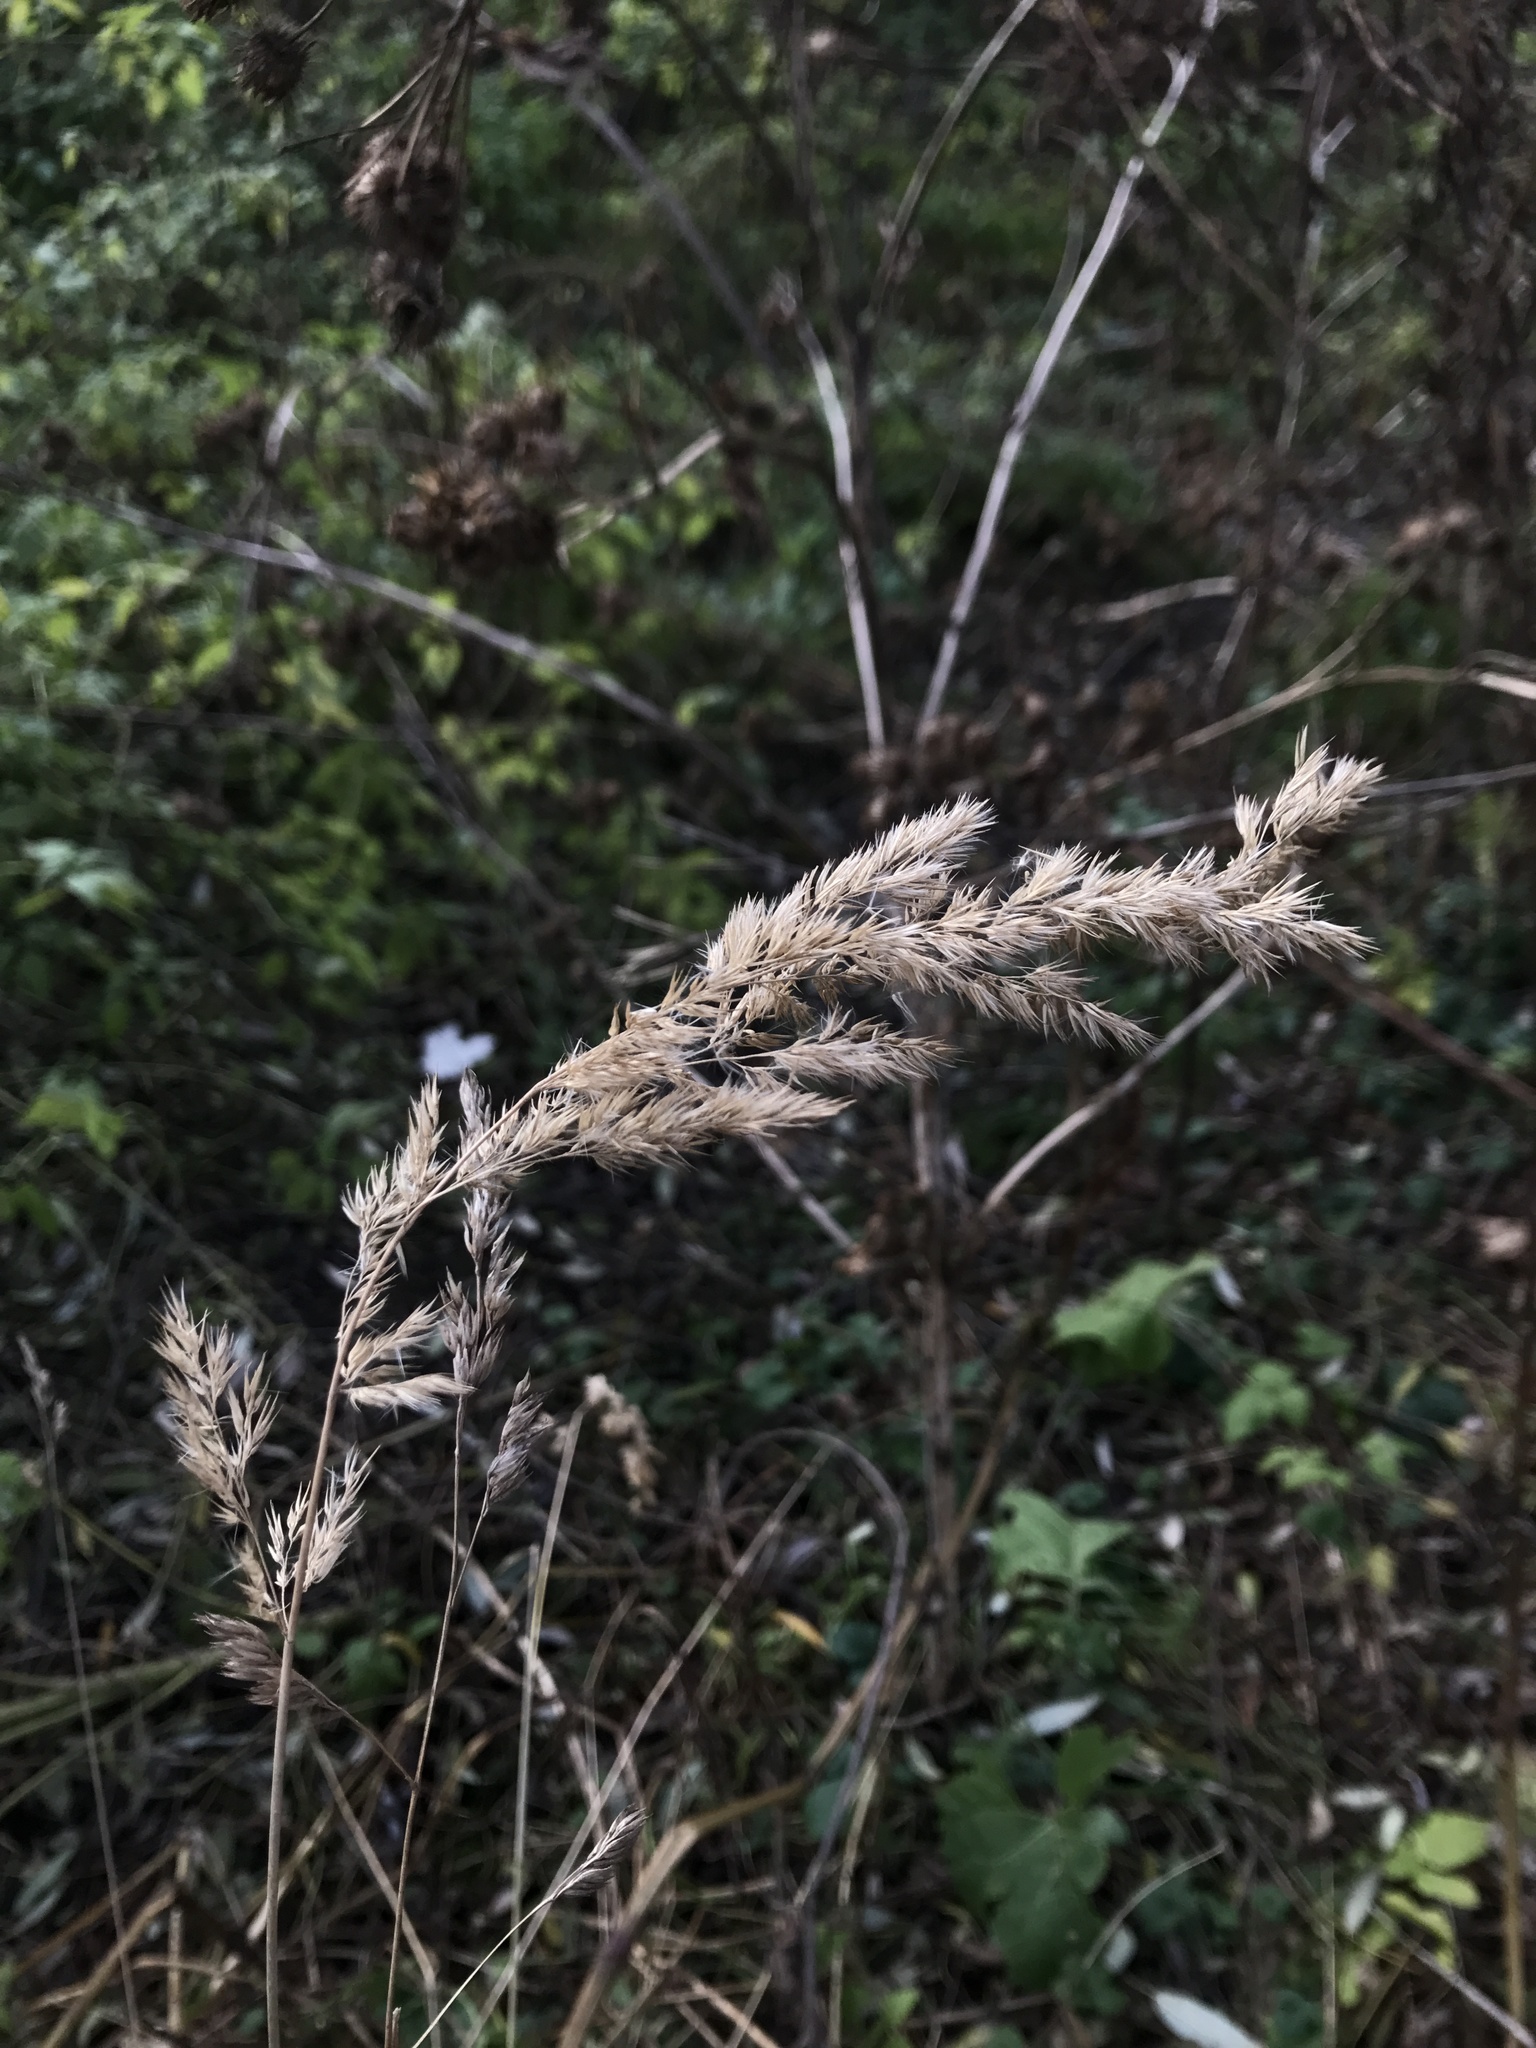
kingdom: Plantae
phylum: Tracheophyta
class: Liliopsida
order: Poales
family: Poaceae
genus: Calamagrostis
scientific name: Calamagrostis epigejos
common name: Wood small-reed
